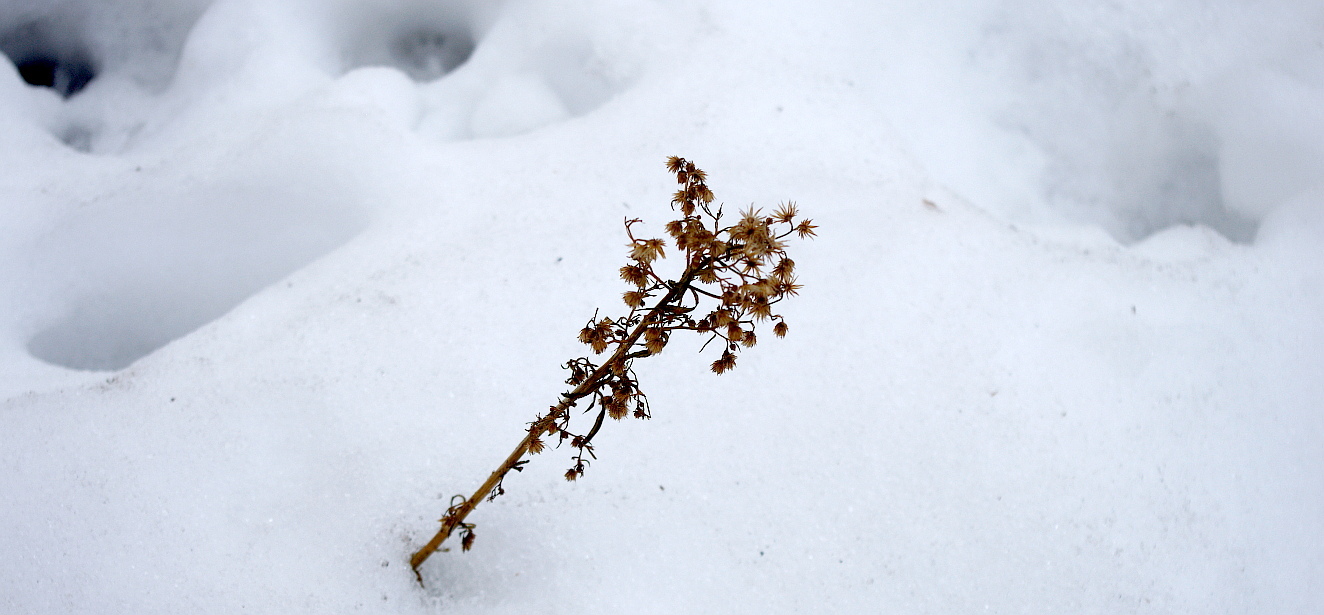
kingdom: Plantae
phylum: Tracheophyta
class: Magnoliopsida
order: Asterales
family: Asteraceae
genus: Erigeron
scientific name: Erigeron canadensis
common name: Canadian fleabane
